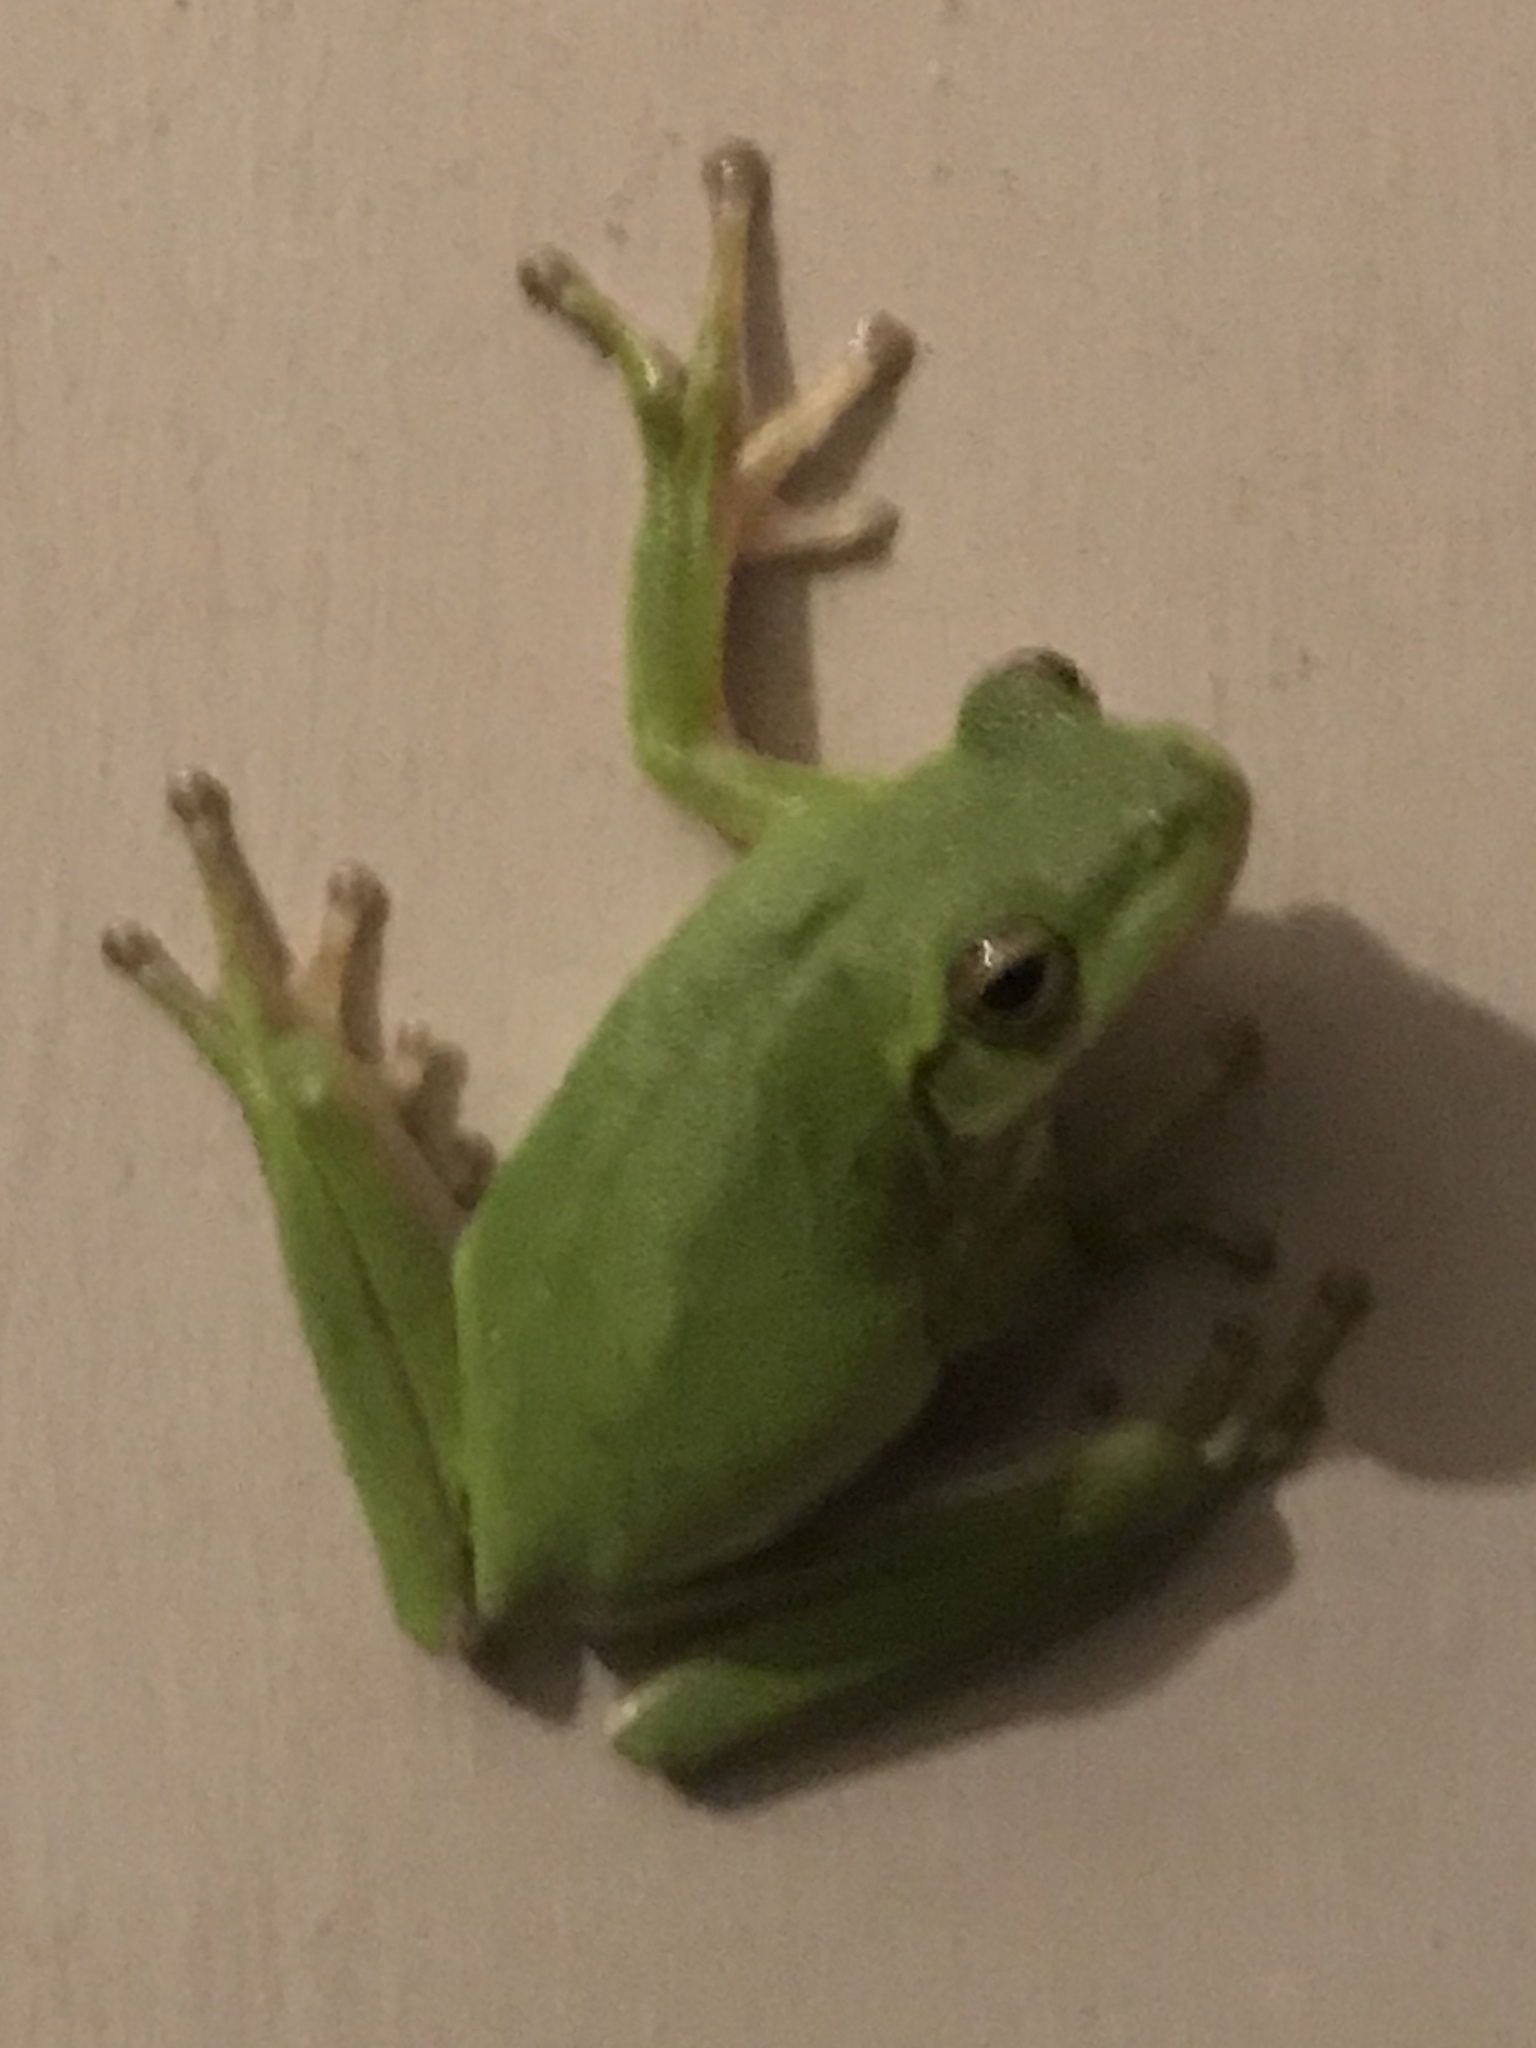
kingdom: Animalia
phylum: Chordata
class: Amphibia
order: Anura
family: Hylidae
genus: Dryophytes
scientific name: Dryophytes cinereus
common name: Green treefrog
